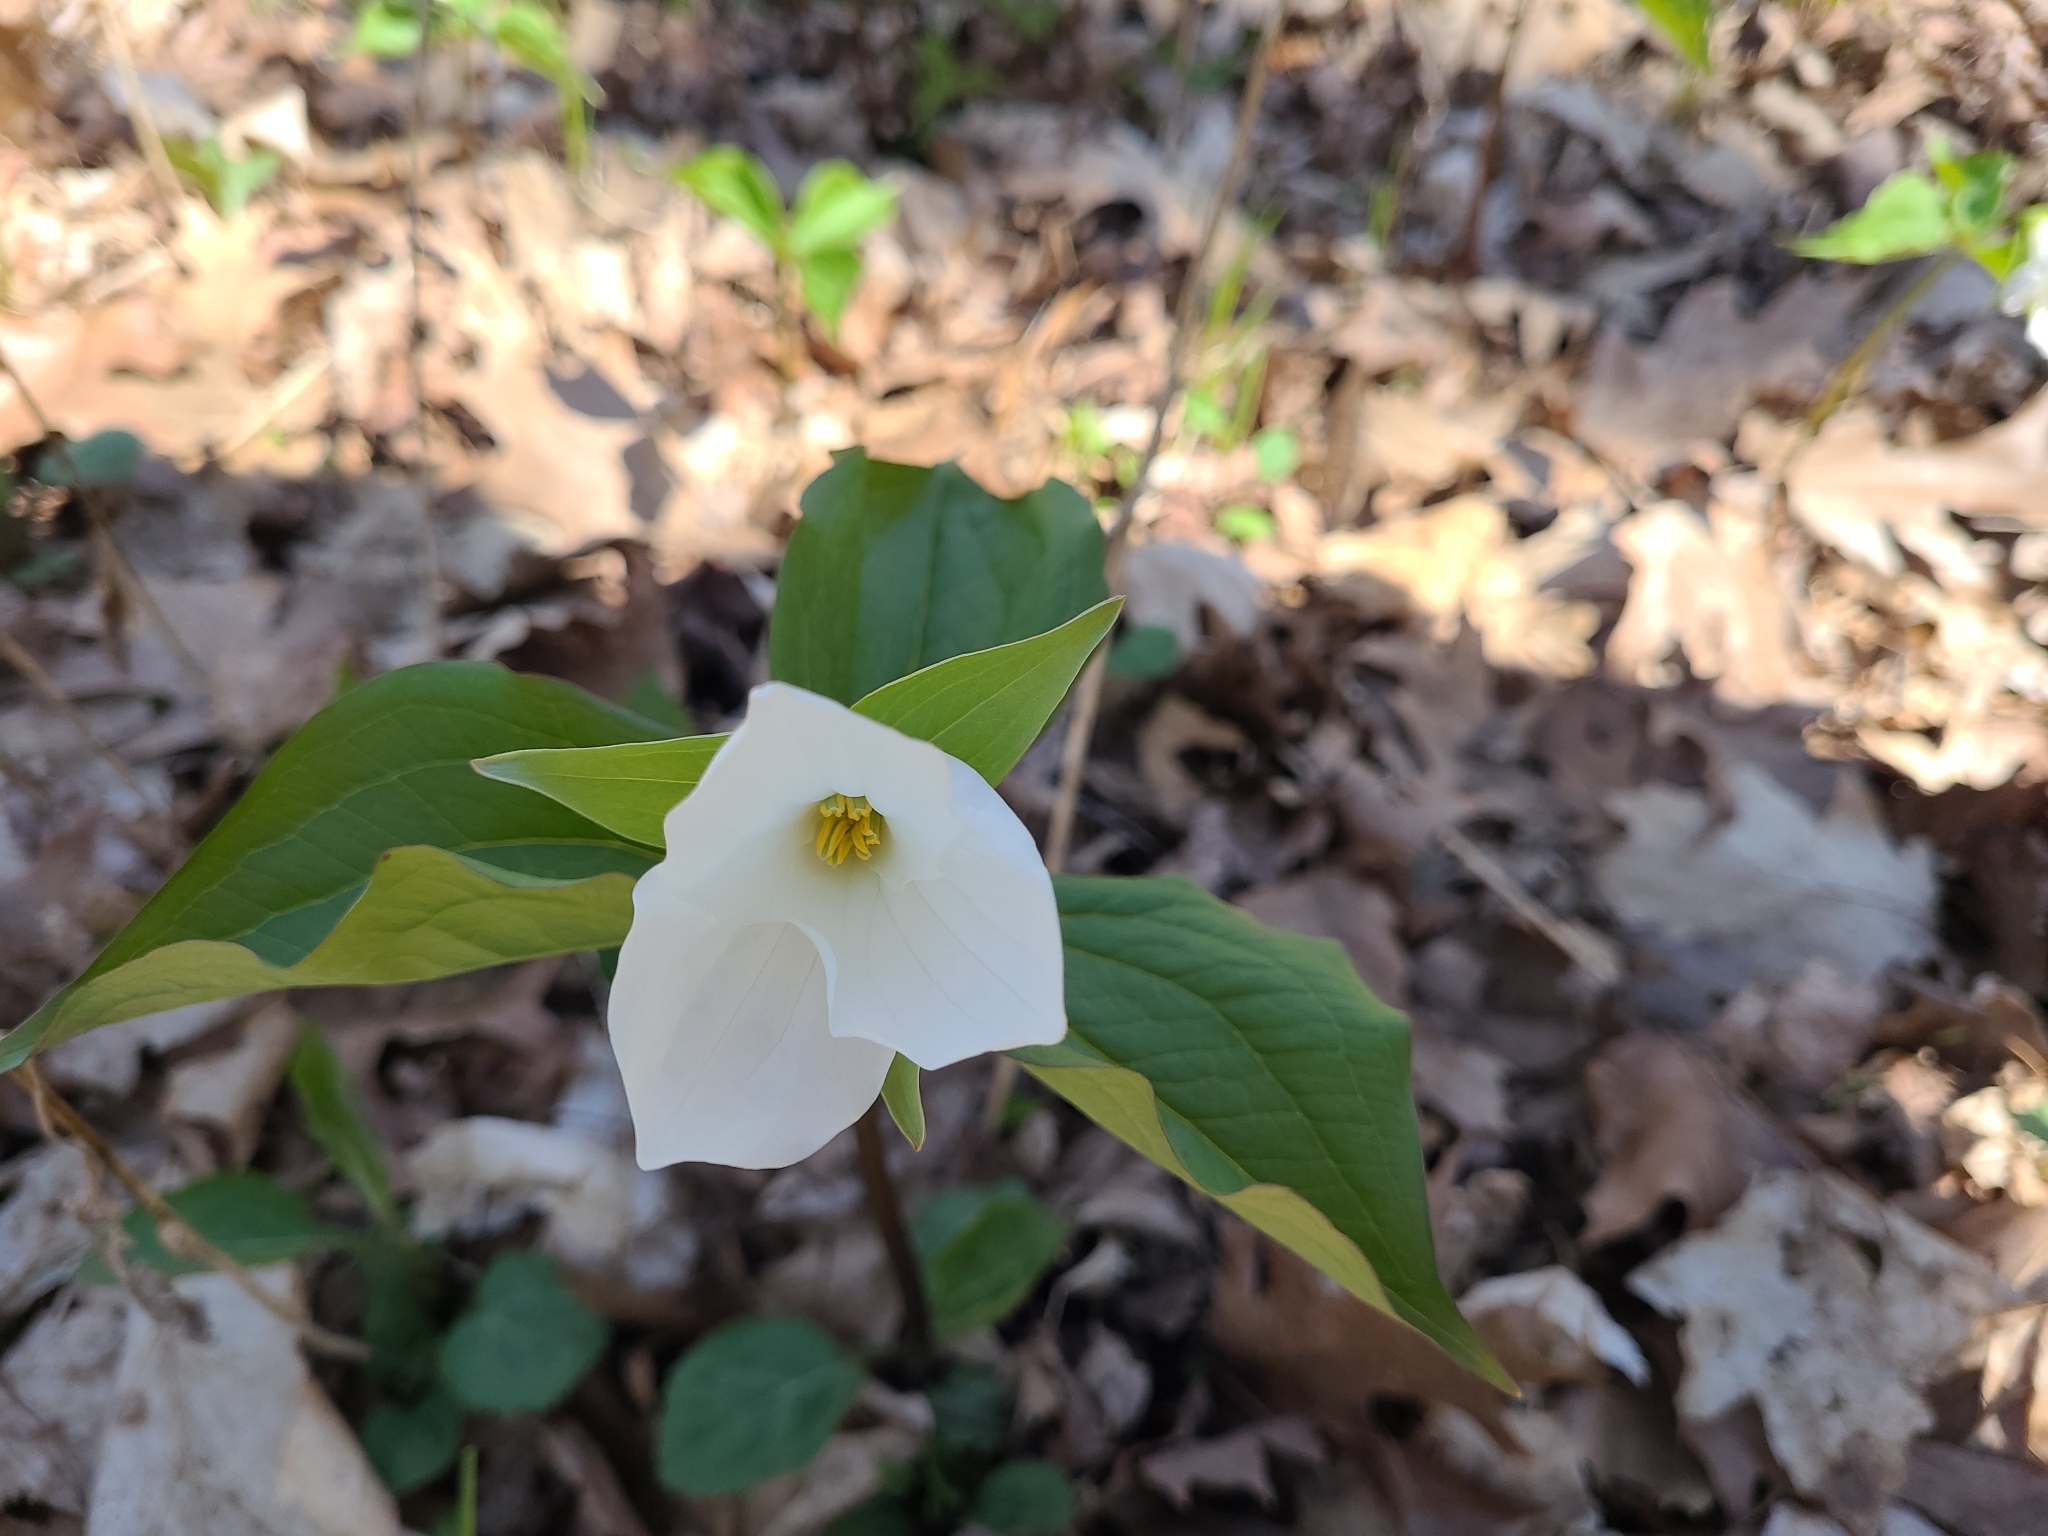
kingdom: Plantae
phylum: Tracheophyta
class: Liliopsida
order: Liliales
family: Melanthiaceae
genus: Trillium
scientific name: Trillium grandiflorum
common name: Great white trillium
